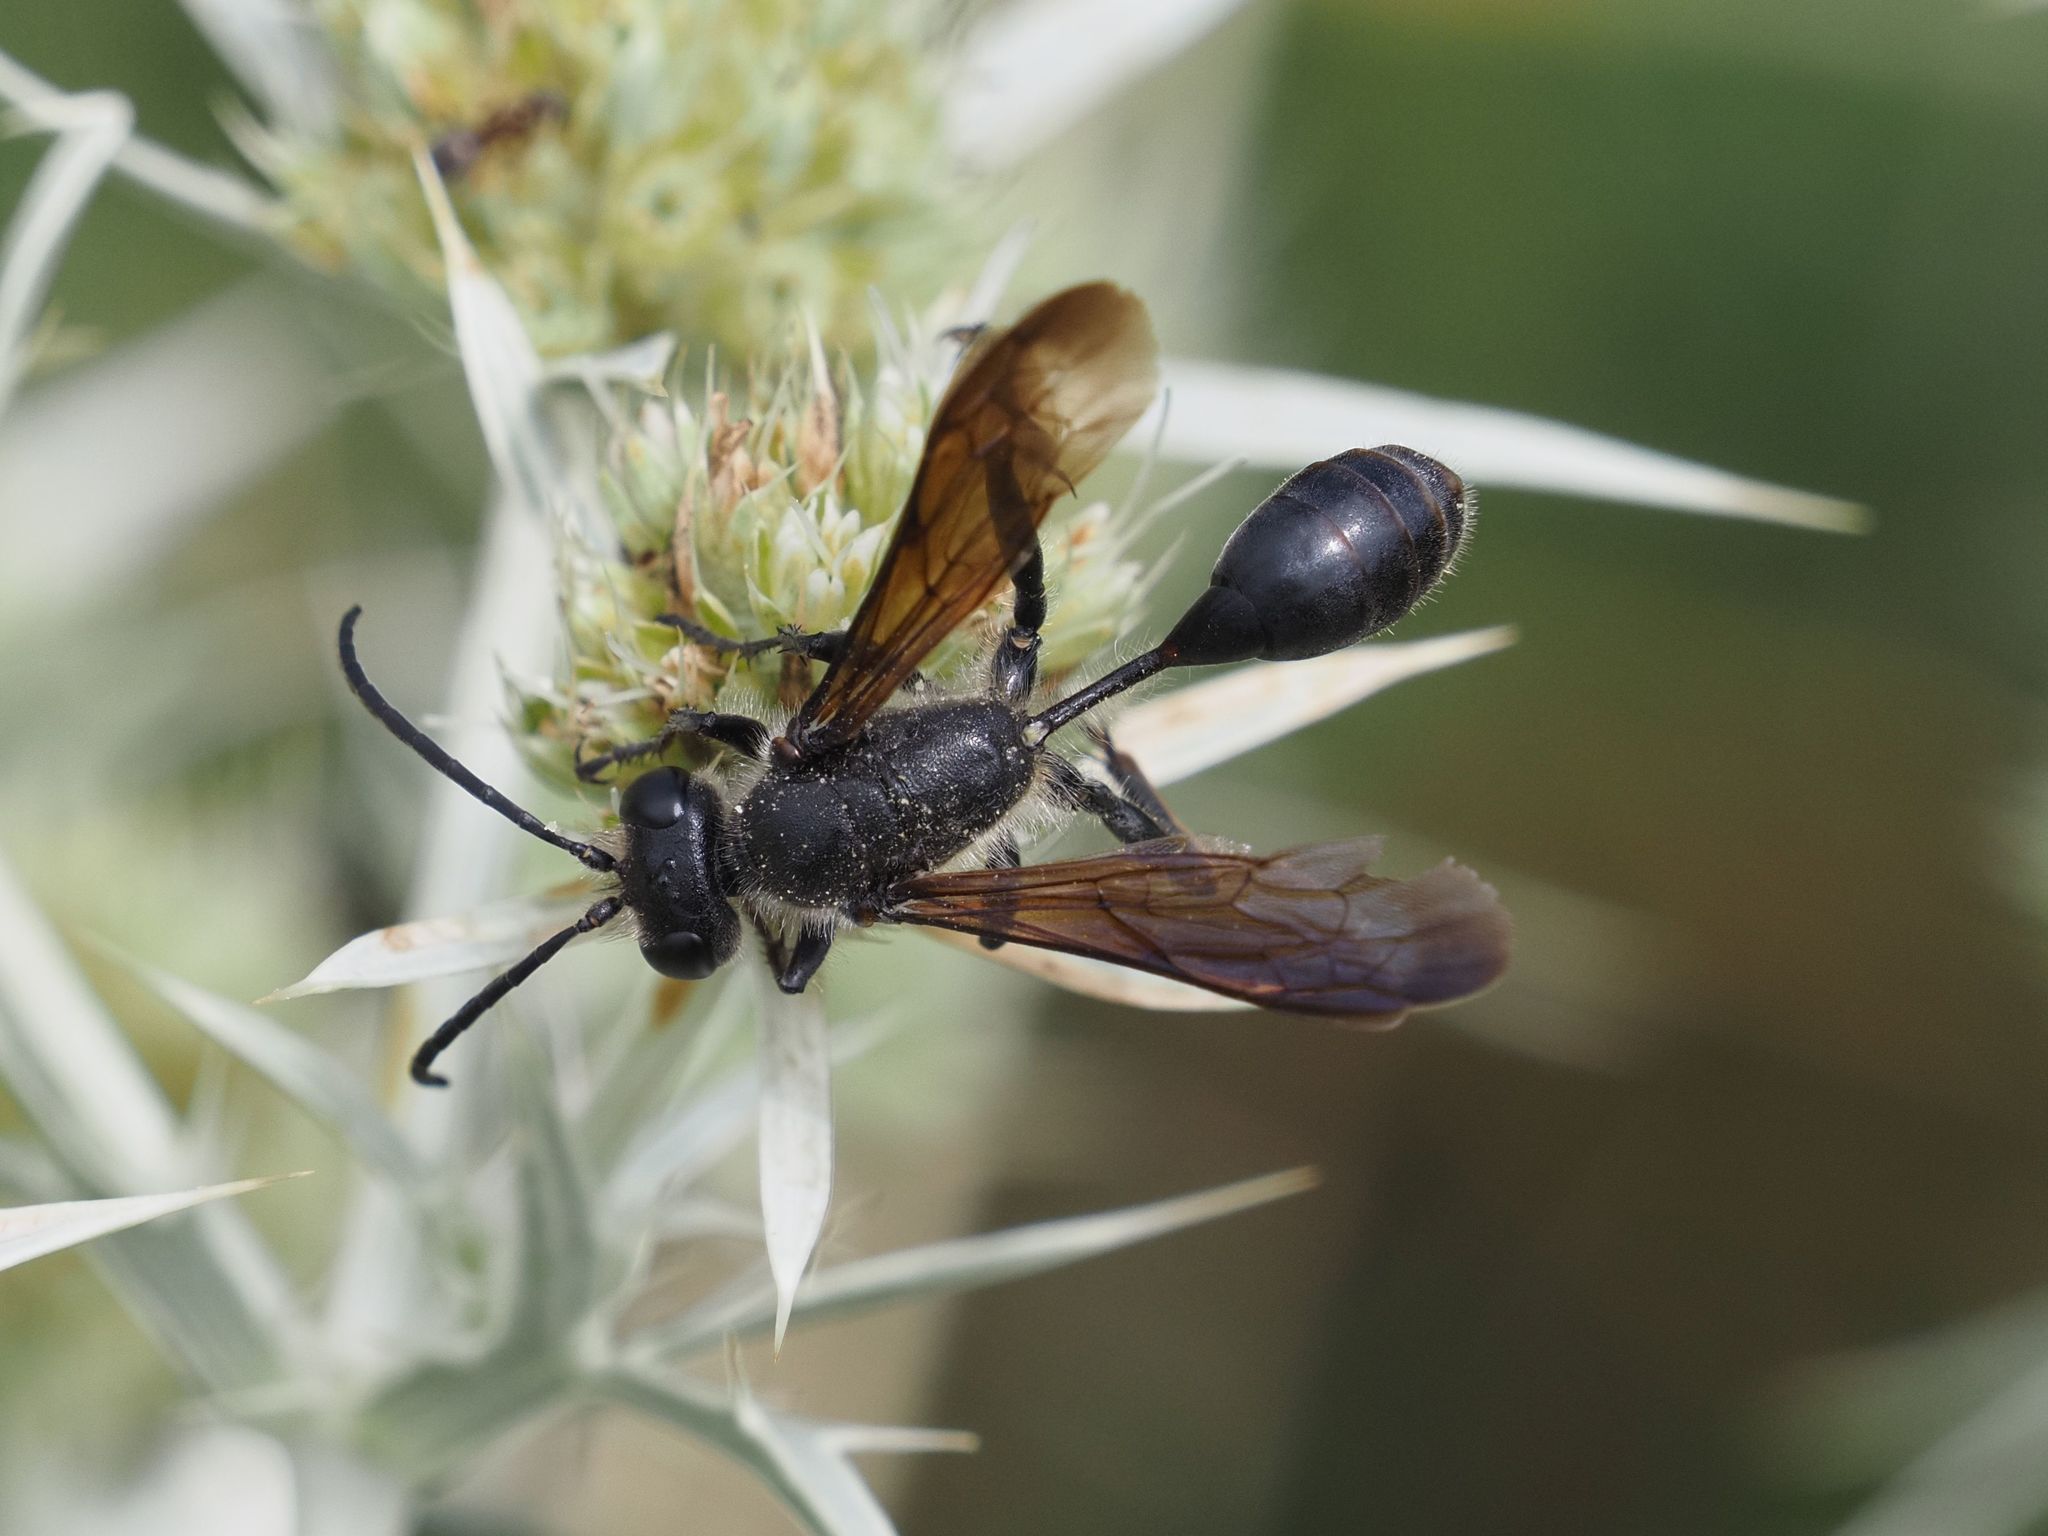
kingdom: Animalia
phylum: Arthropoda
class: Insecta
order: Hymenoptera
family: Sphecidae
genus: Isodontia
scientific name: Isodontia mexicana
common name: Mud dauber
